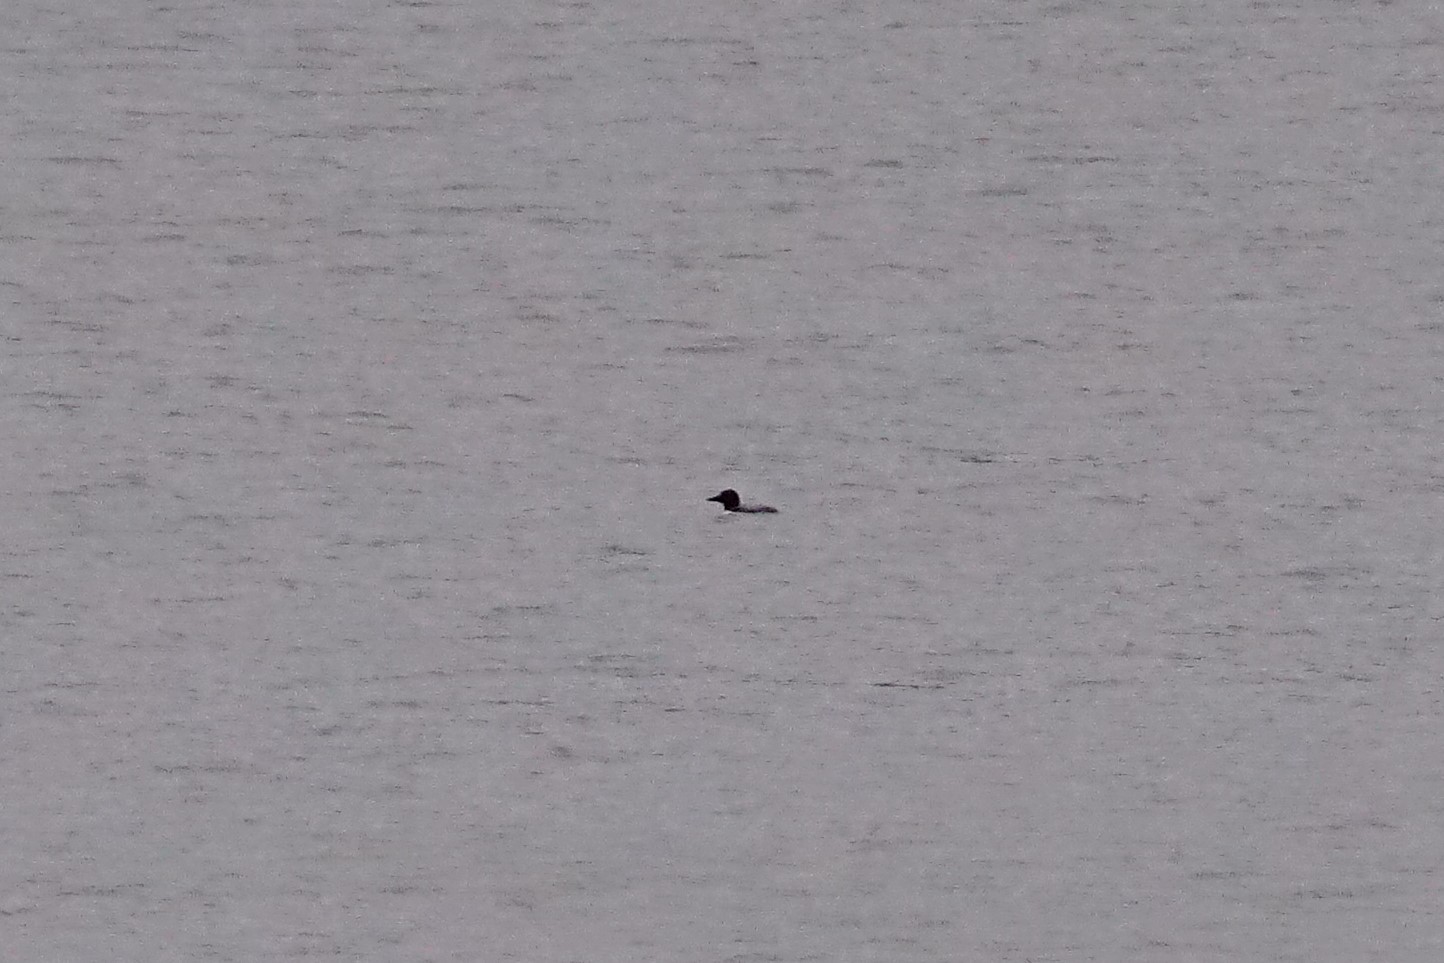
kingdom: Animalia
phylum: Chordata
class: Aves
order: Gaviiformes
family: Gaviidae
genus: Gavia
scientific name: Gavia immer
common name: Common loon
